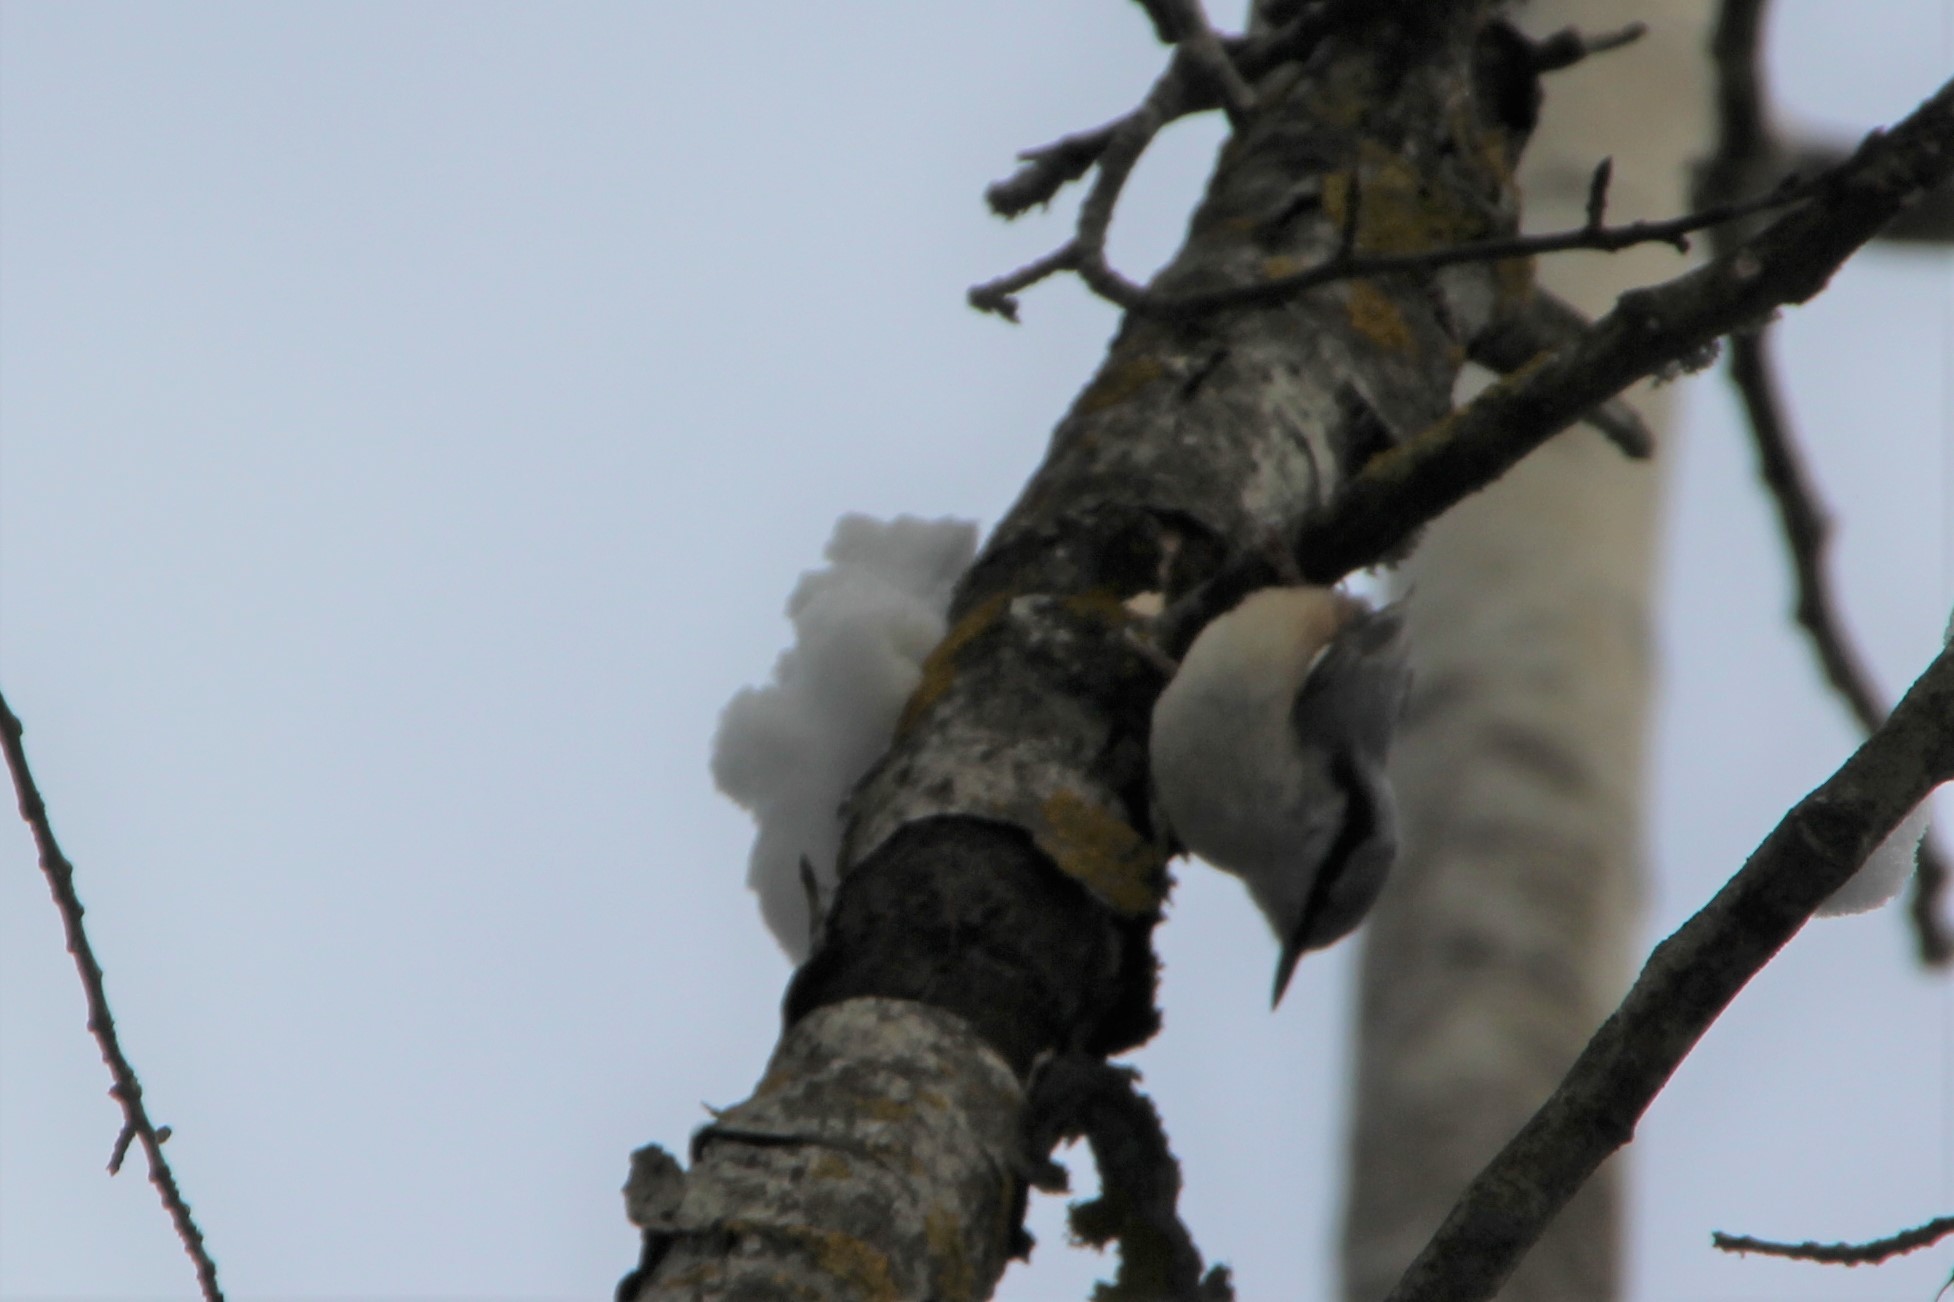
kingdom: Animalia
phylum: Chordata
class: Aves
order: Passeriformes
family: Sittidae
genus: Sitta
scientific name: Sitta europaea
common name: Eurasian nuthatch
